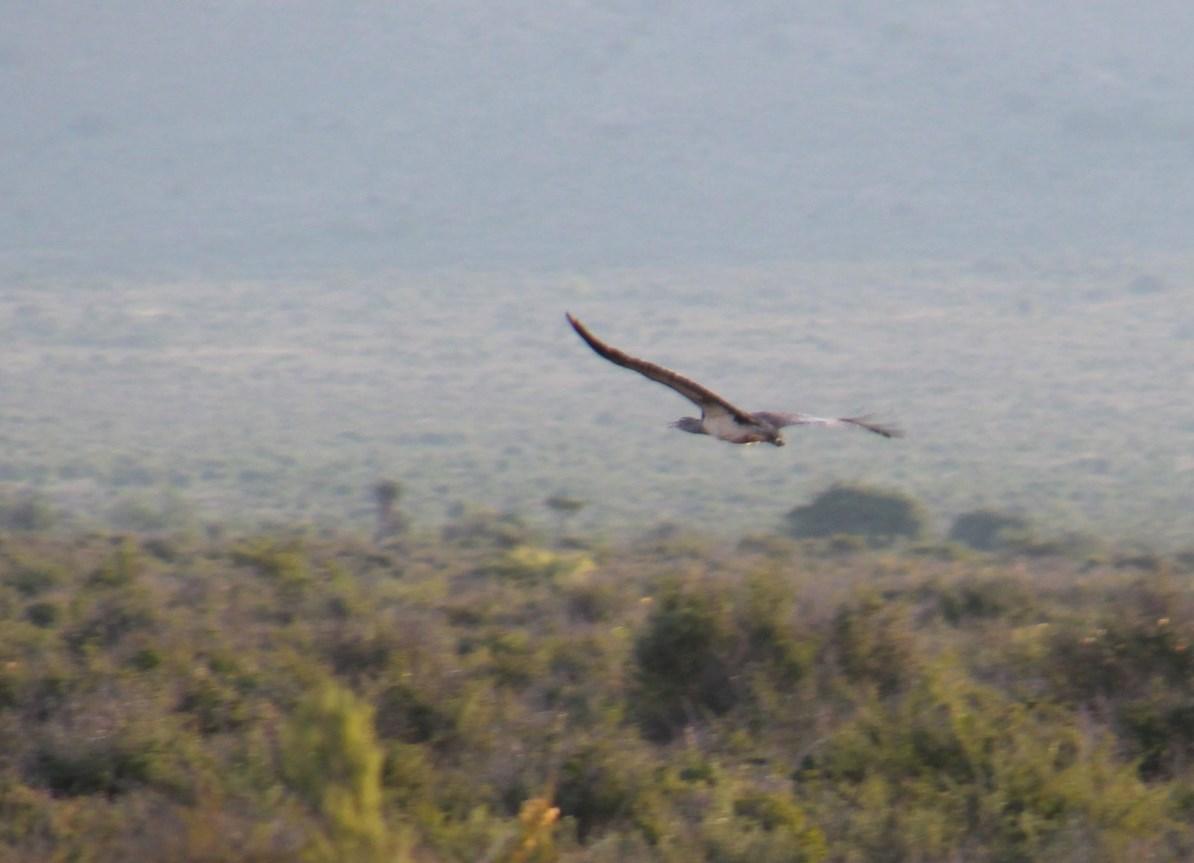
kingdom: Animalia
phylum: Chordata
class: Aves
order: Otidiformes
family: Otididae
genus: Neotis
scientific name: Neotis denhami
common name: Denham's bustard
